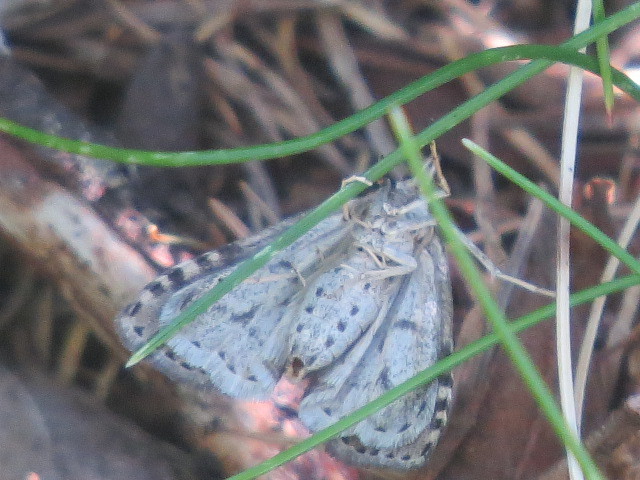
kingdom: Animalia
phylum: Arthropoda
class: Insecta
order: Lepidoptera
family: Crambidae
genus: Udea
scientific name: Udea inquinatalis
